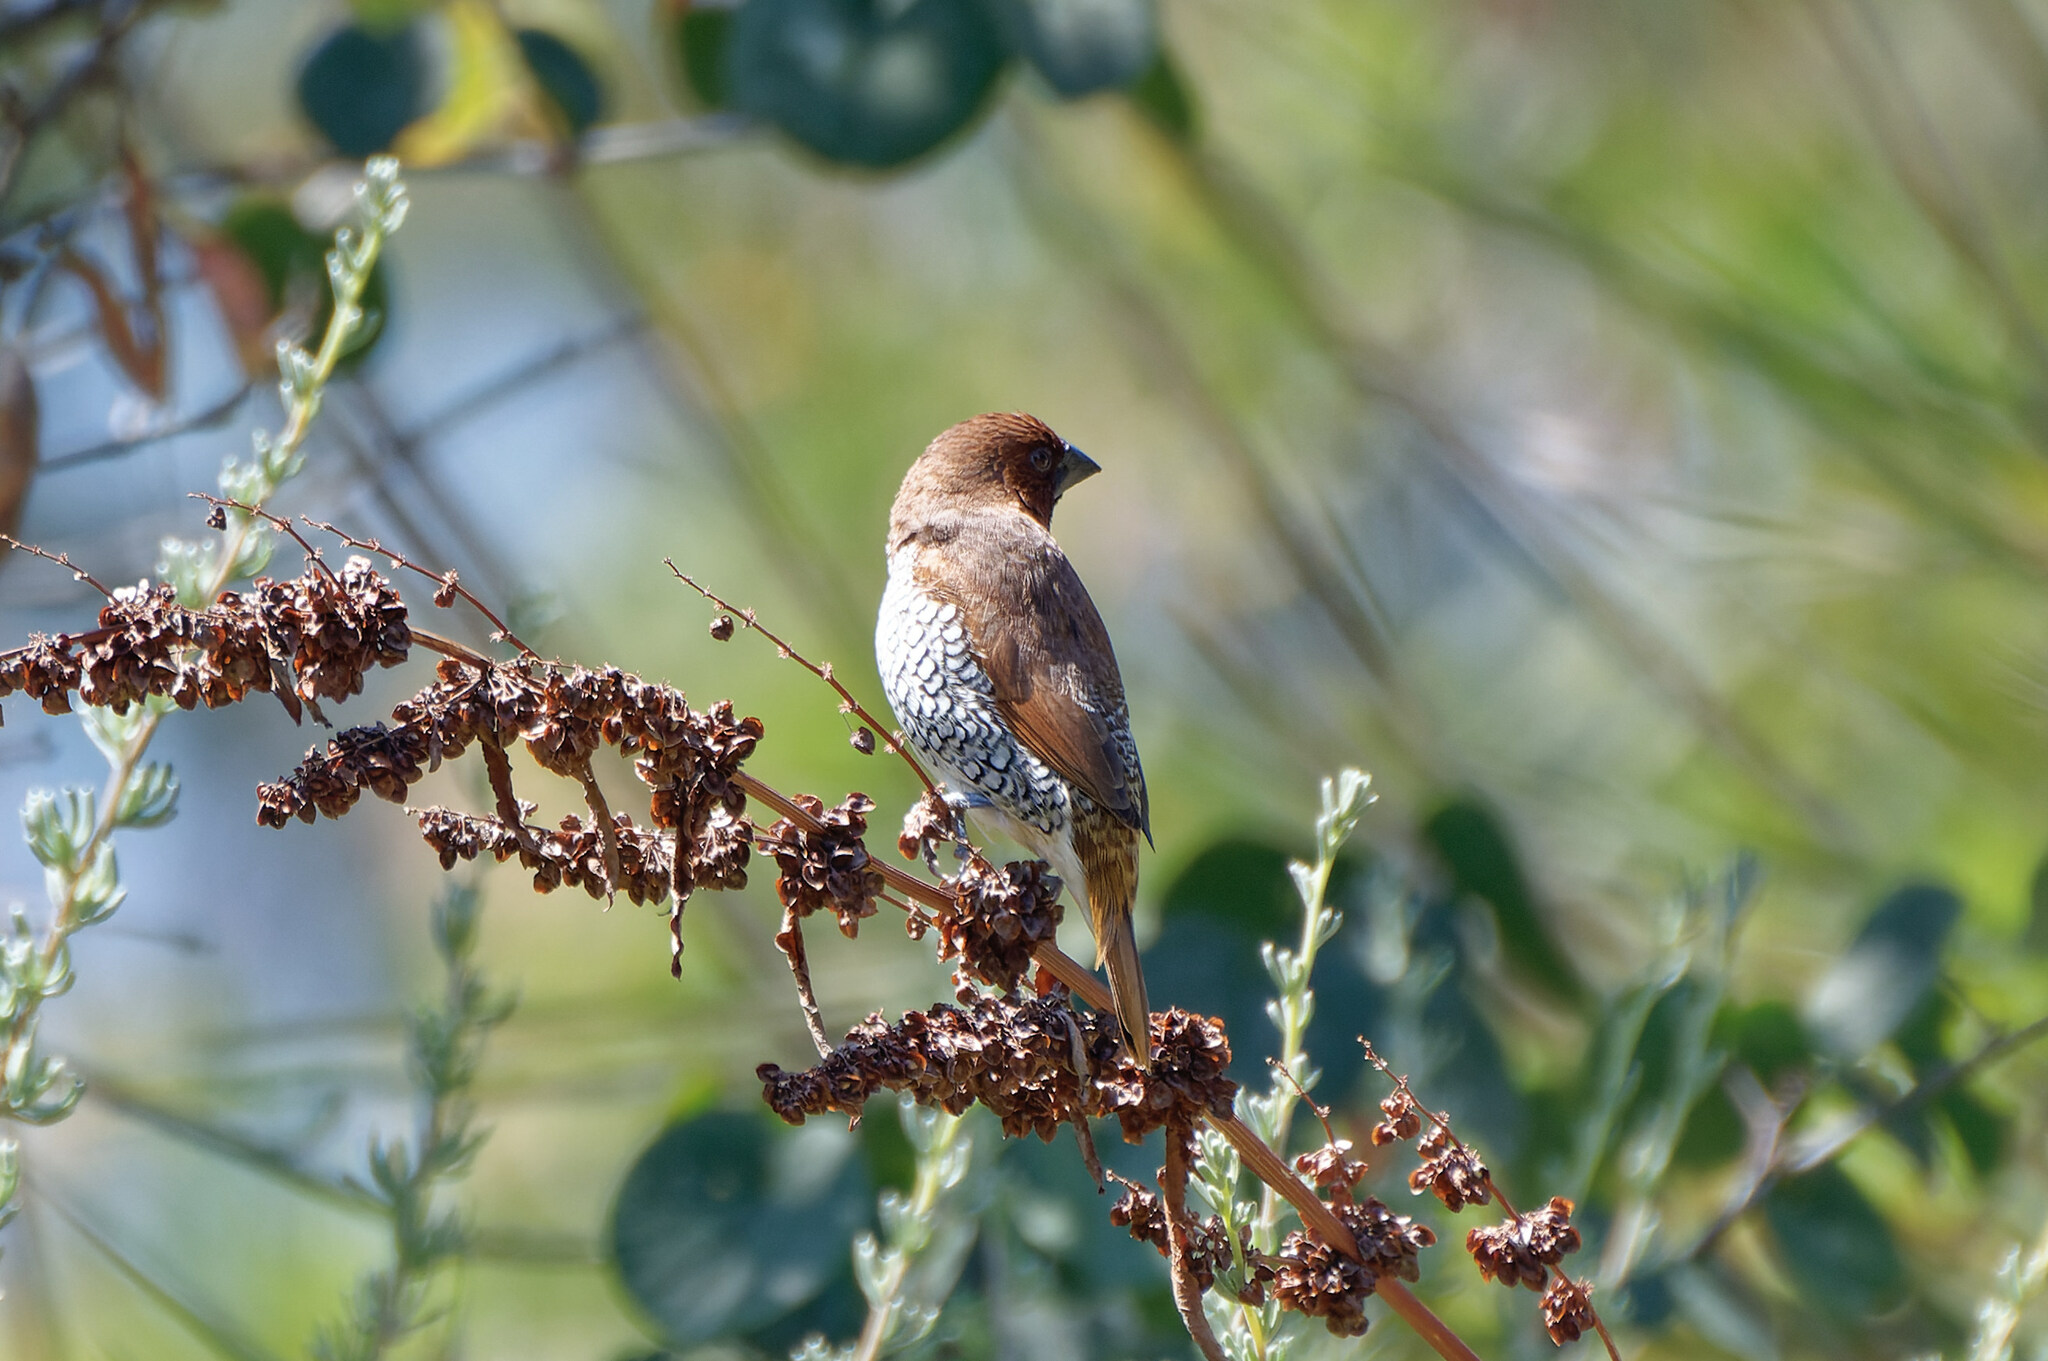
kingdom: Animalia
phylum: Chordata
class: Aves
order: Passeriformes
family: Estrildidae
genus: Lonchura
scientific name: Lonchura punctulata
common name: Scaly-breasted munia
